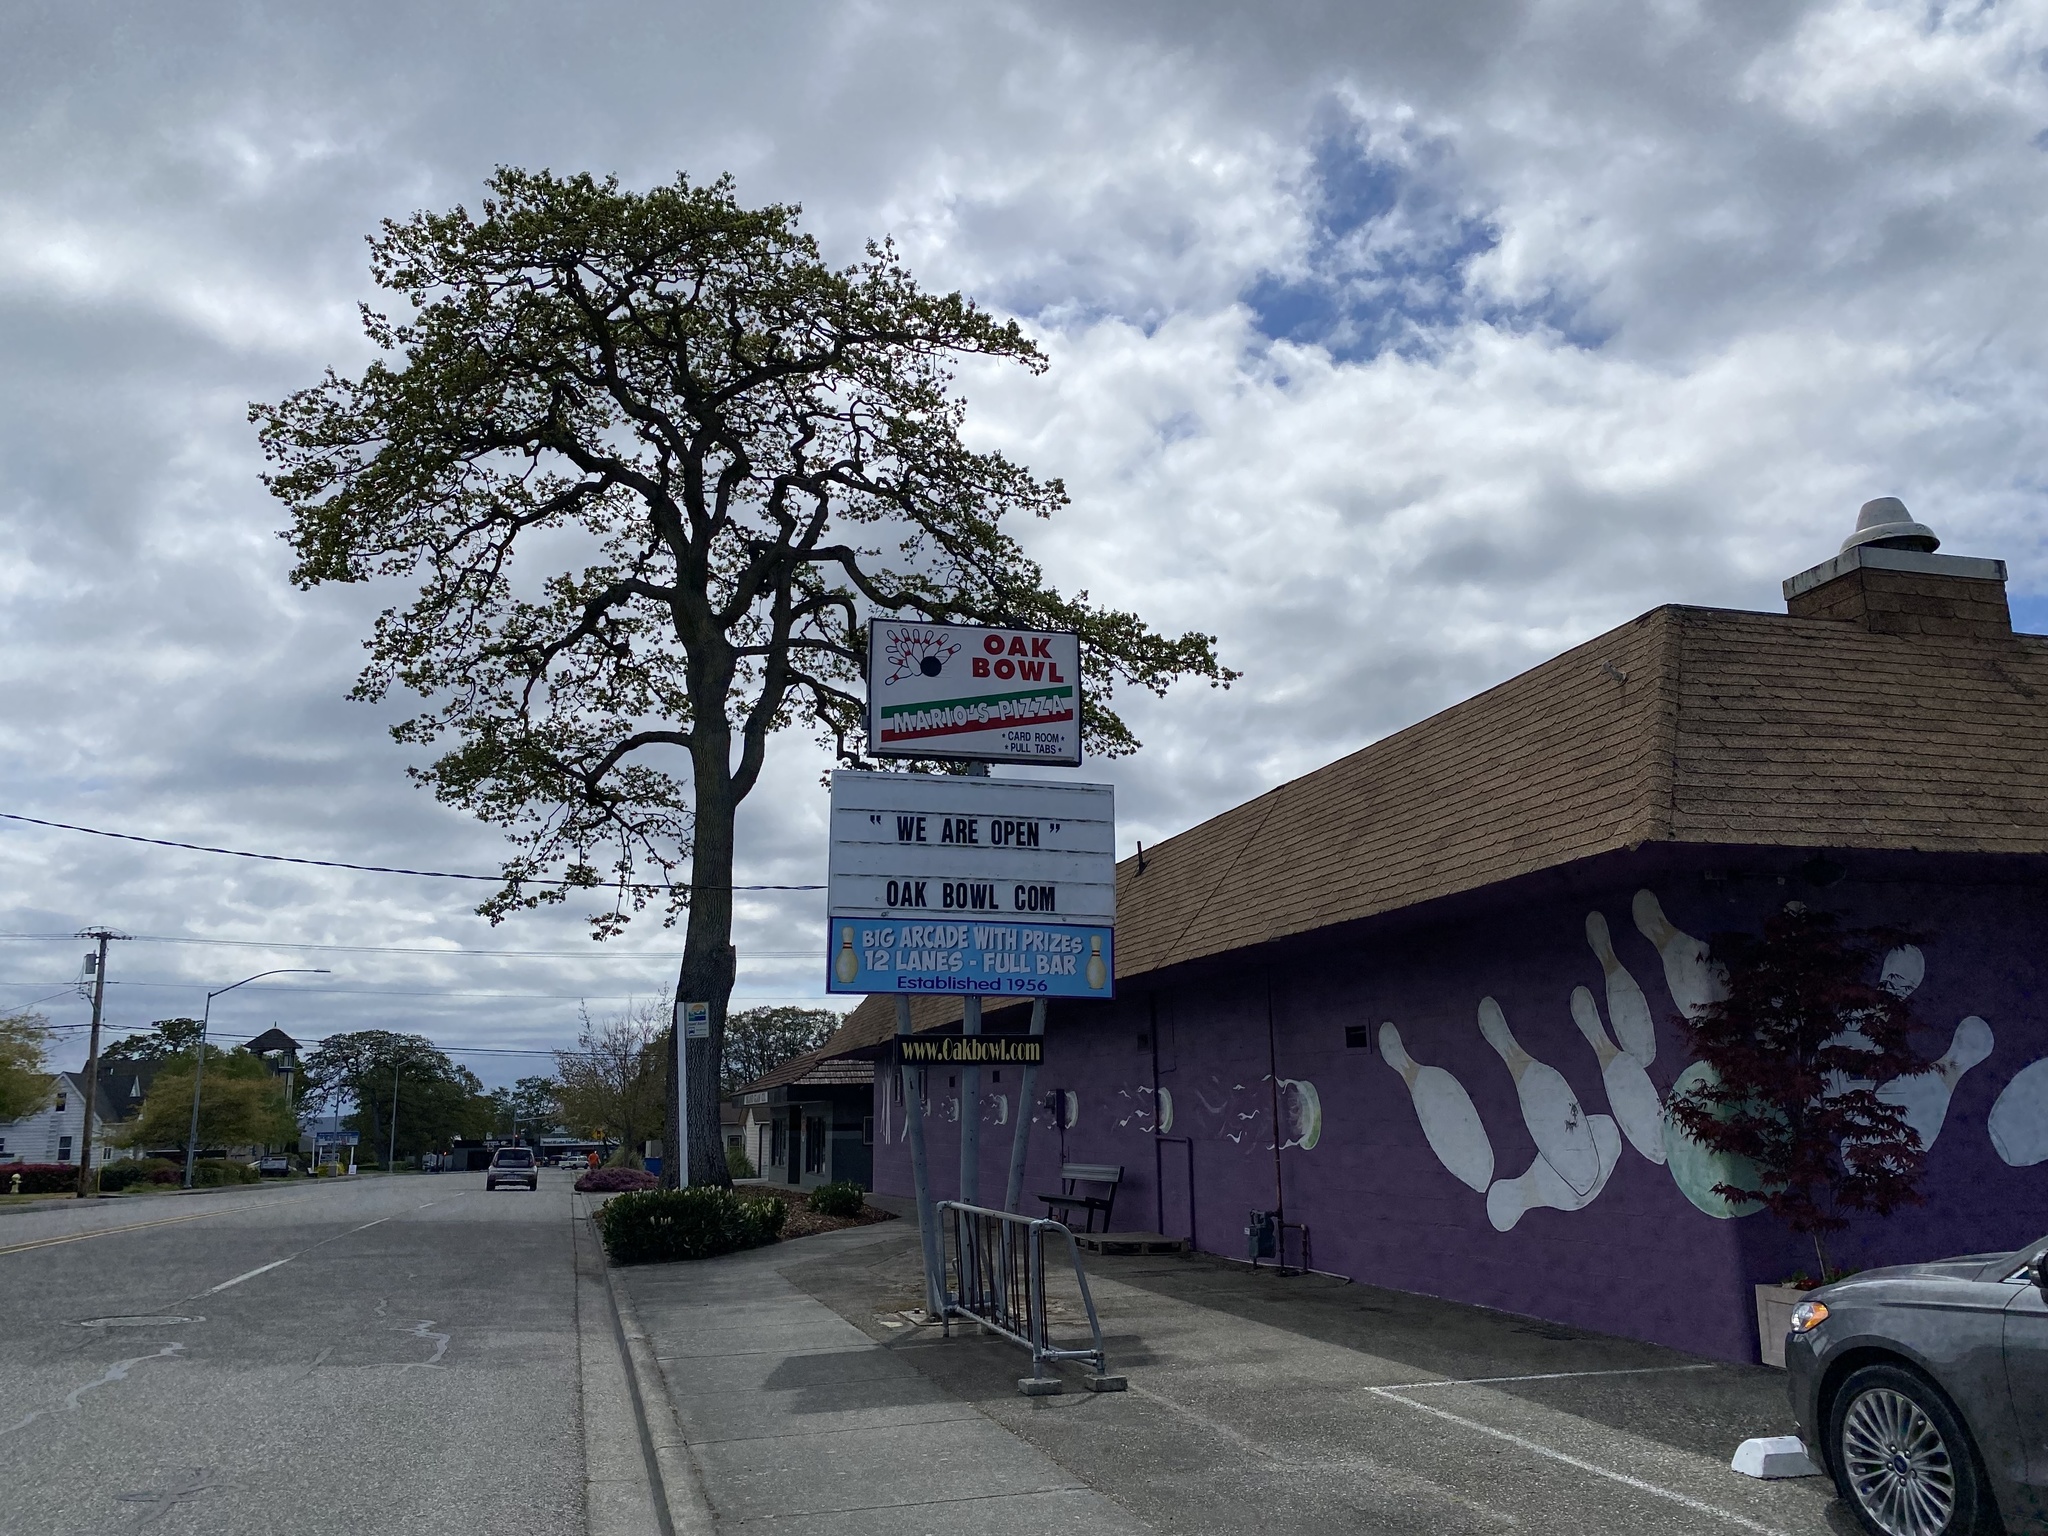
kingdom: Plantae
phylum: Tracheophyta
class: Magnoliopsida
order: Fagales
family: Fagaceae
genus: Quercus
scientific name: Quercus garryana
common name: Garry oak
